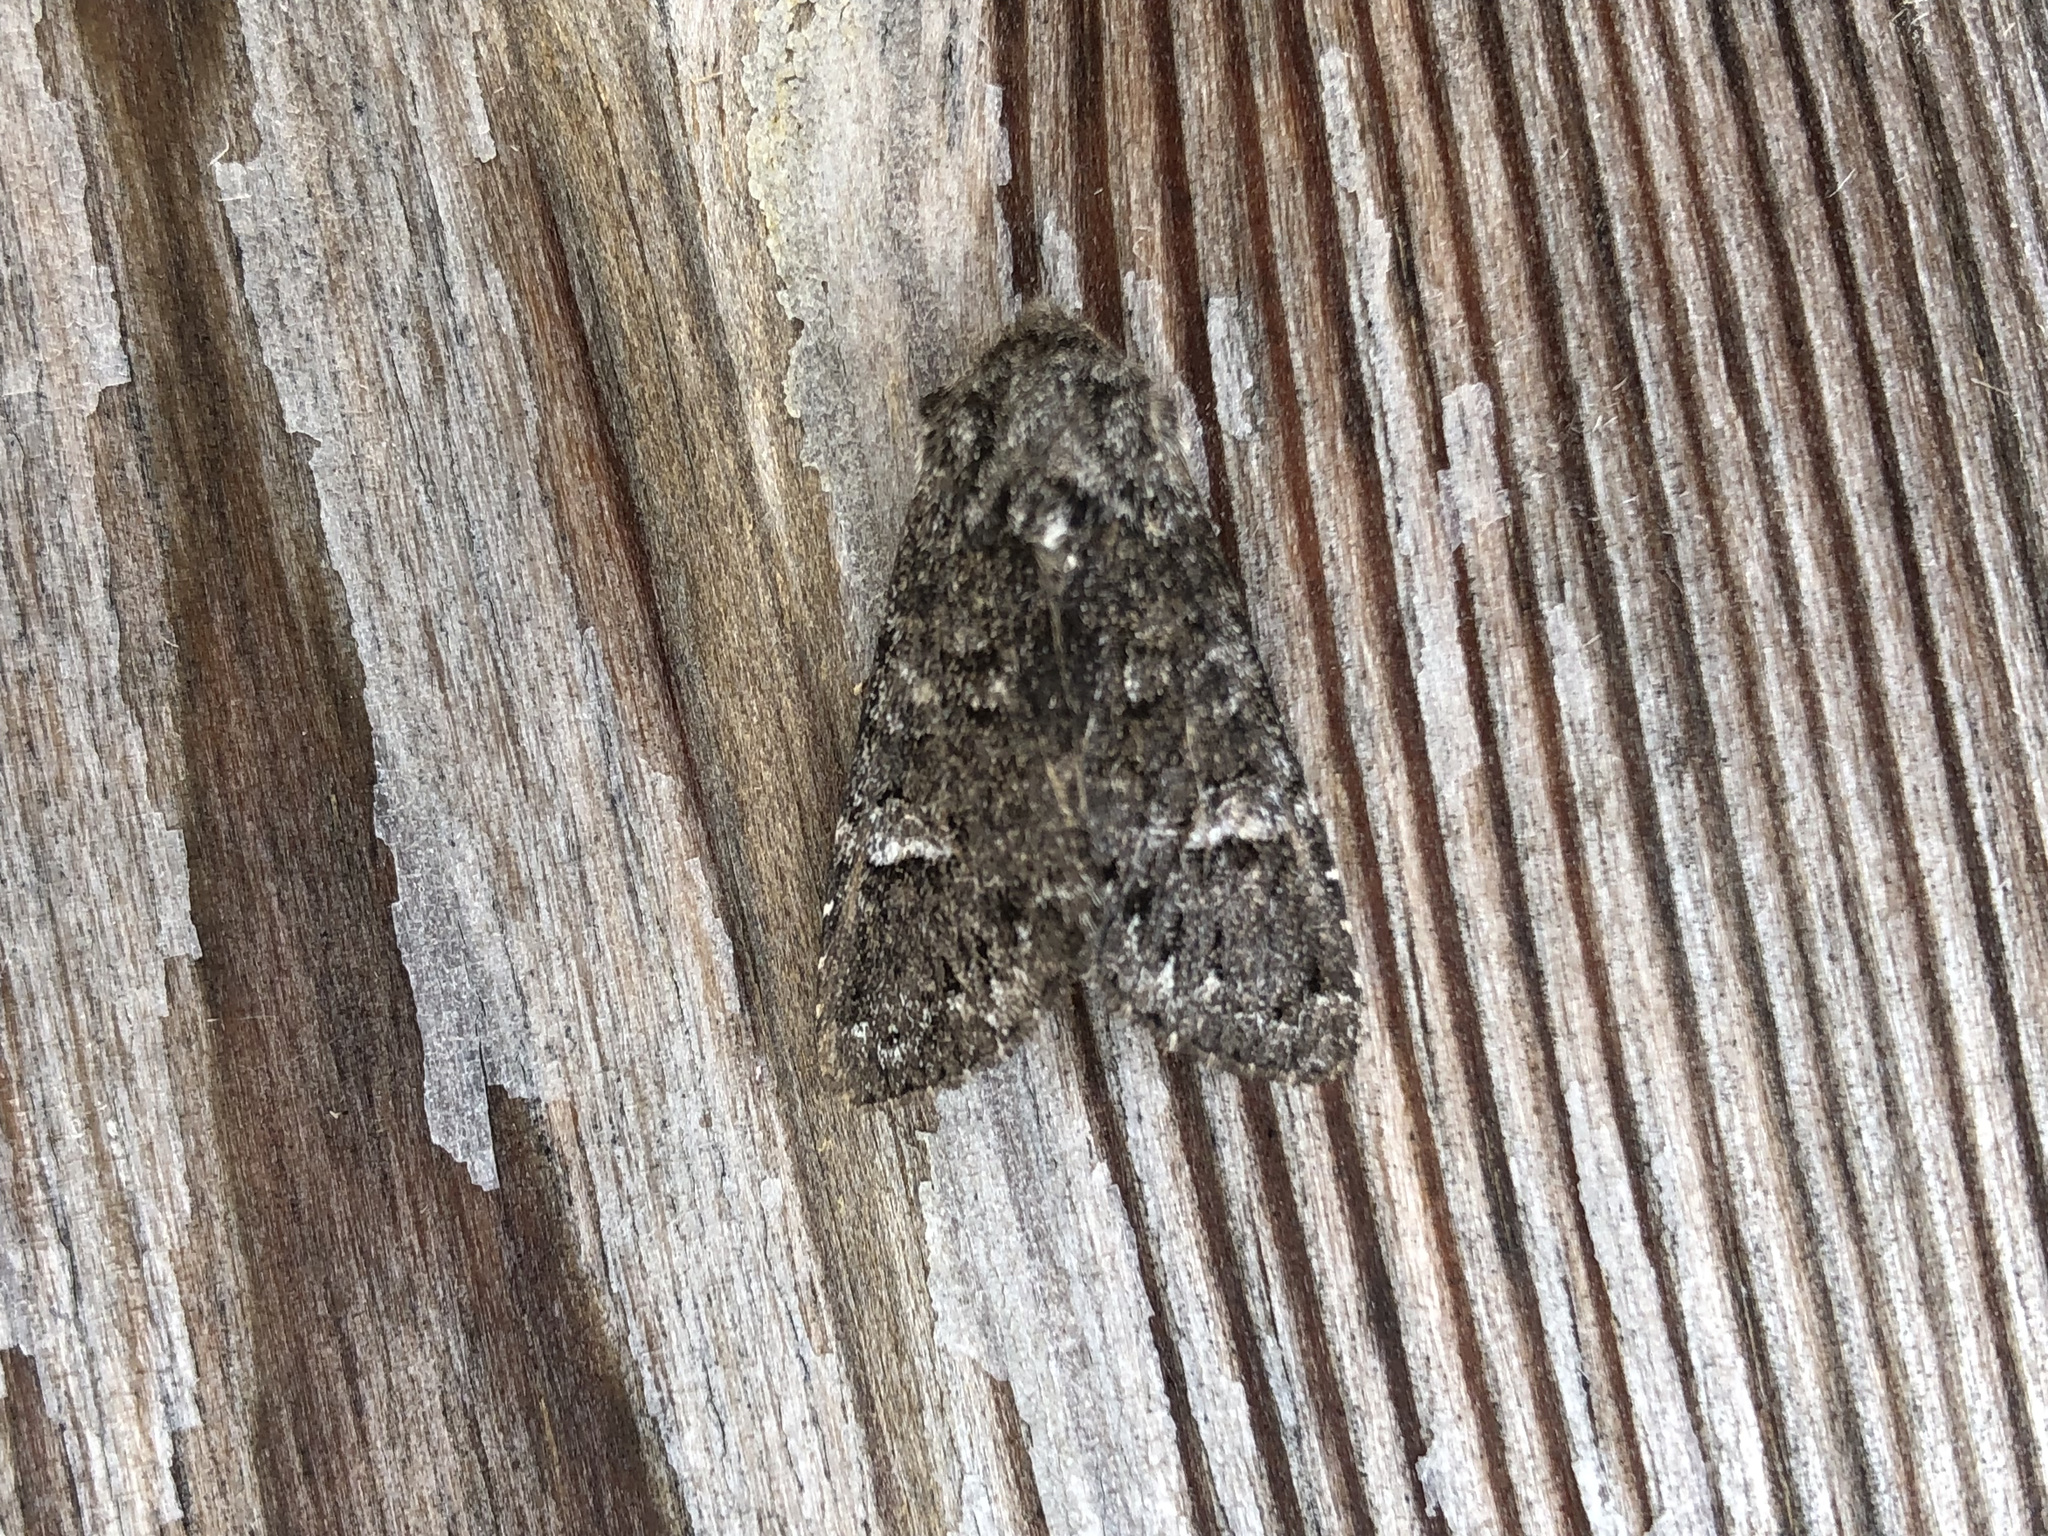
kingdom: Animalia
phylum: Arthropoda
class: Insecta
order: Lepidoptera
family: Noctuidae
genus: Papestra
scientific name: Papestra biren
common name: Glaucous shears
